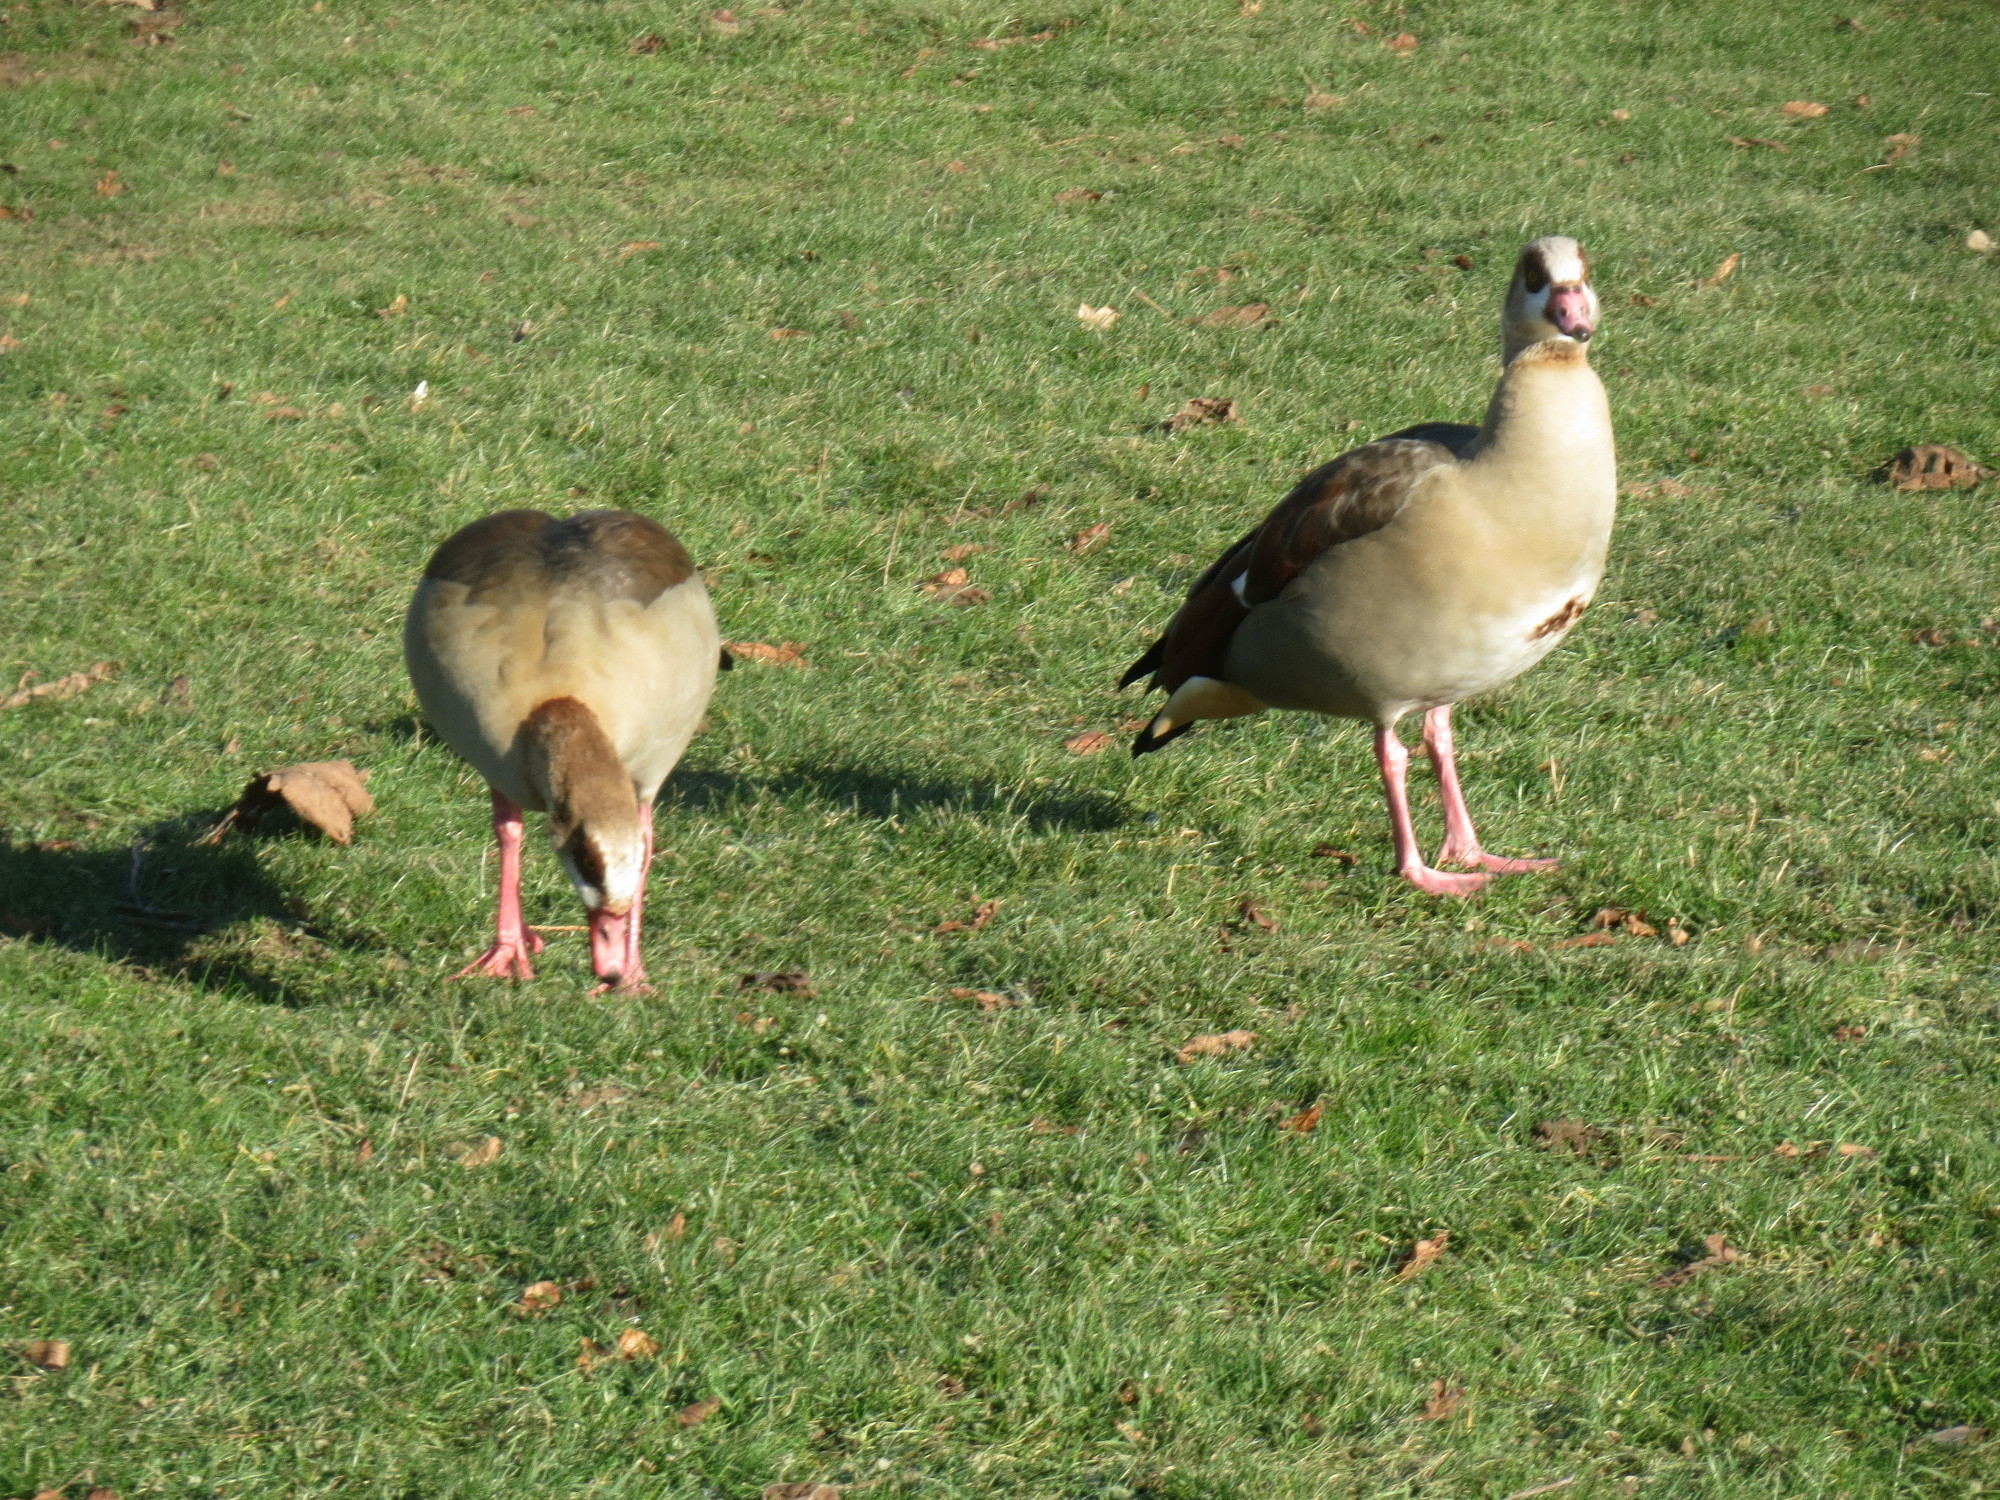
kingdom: Animalia
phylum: Chordata
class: Aves
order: Anseriformes
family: Anatidae
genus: Alopochen
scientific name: Alopochen aegyptiaca
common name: Egyptian goose
